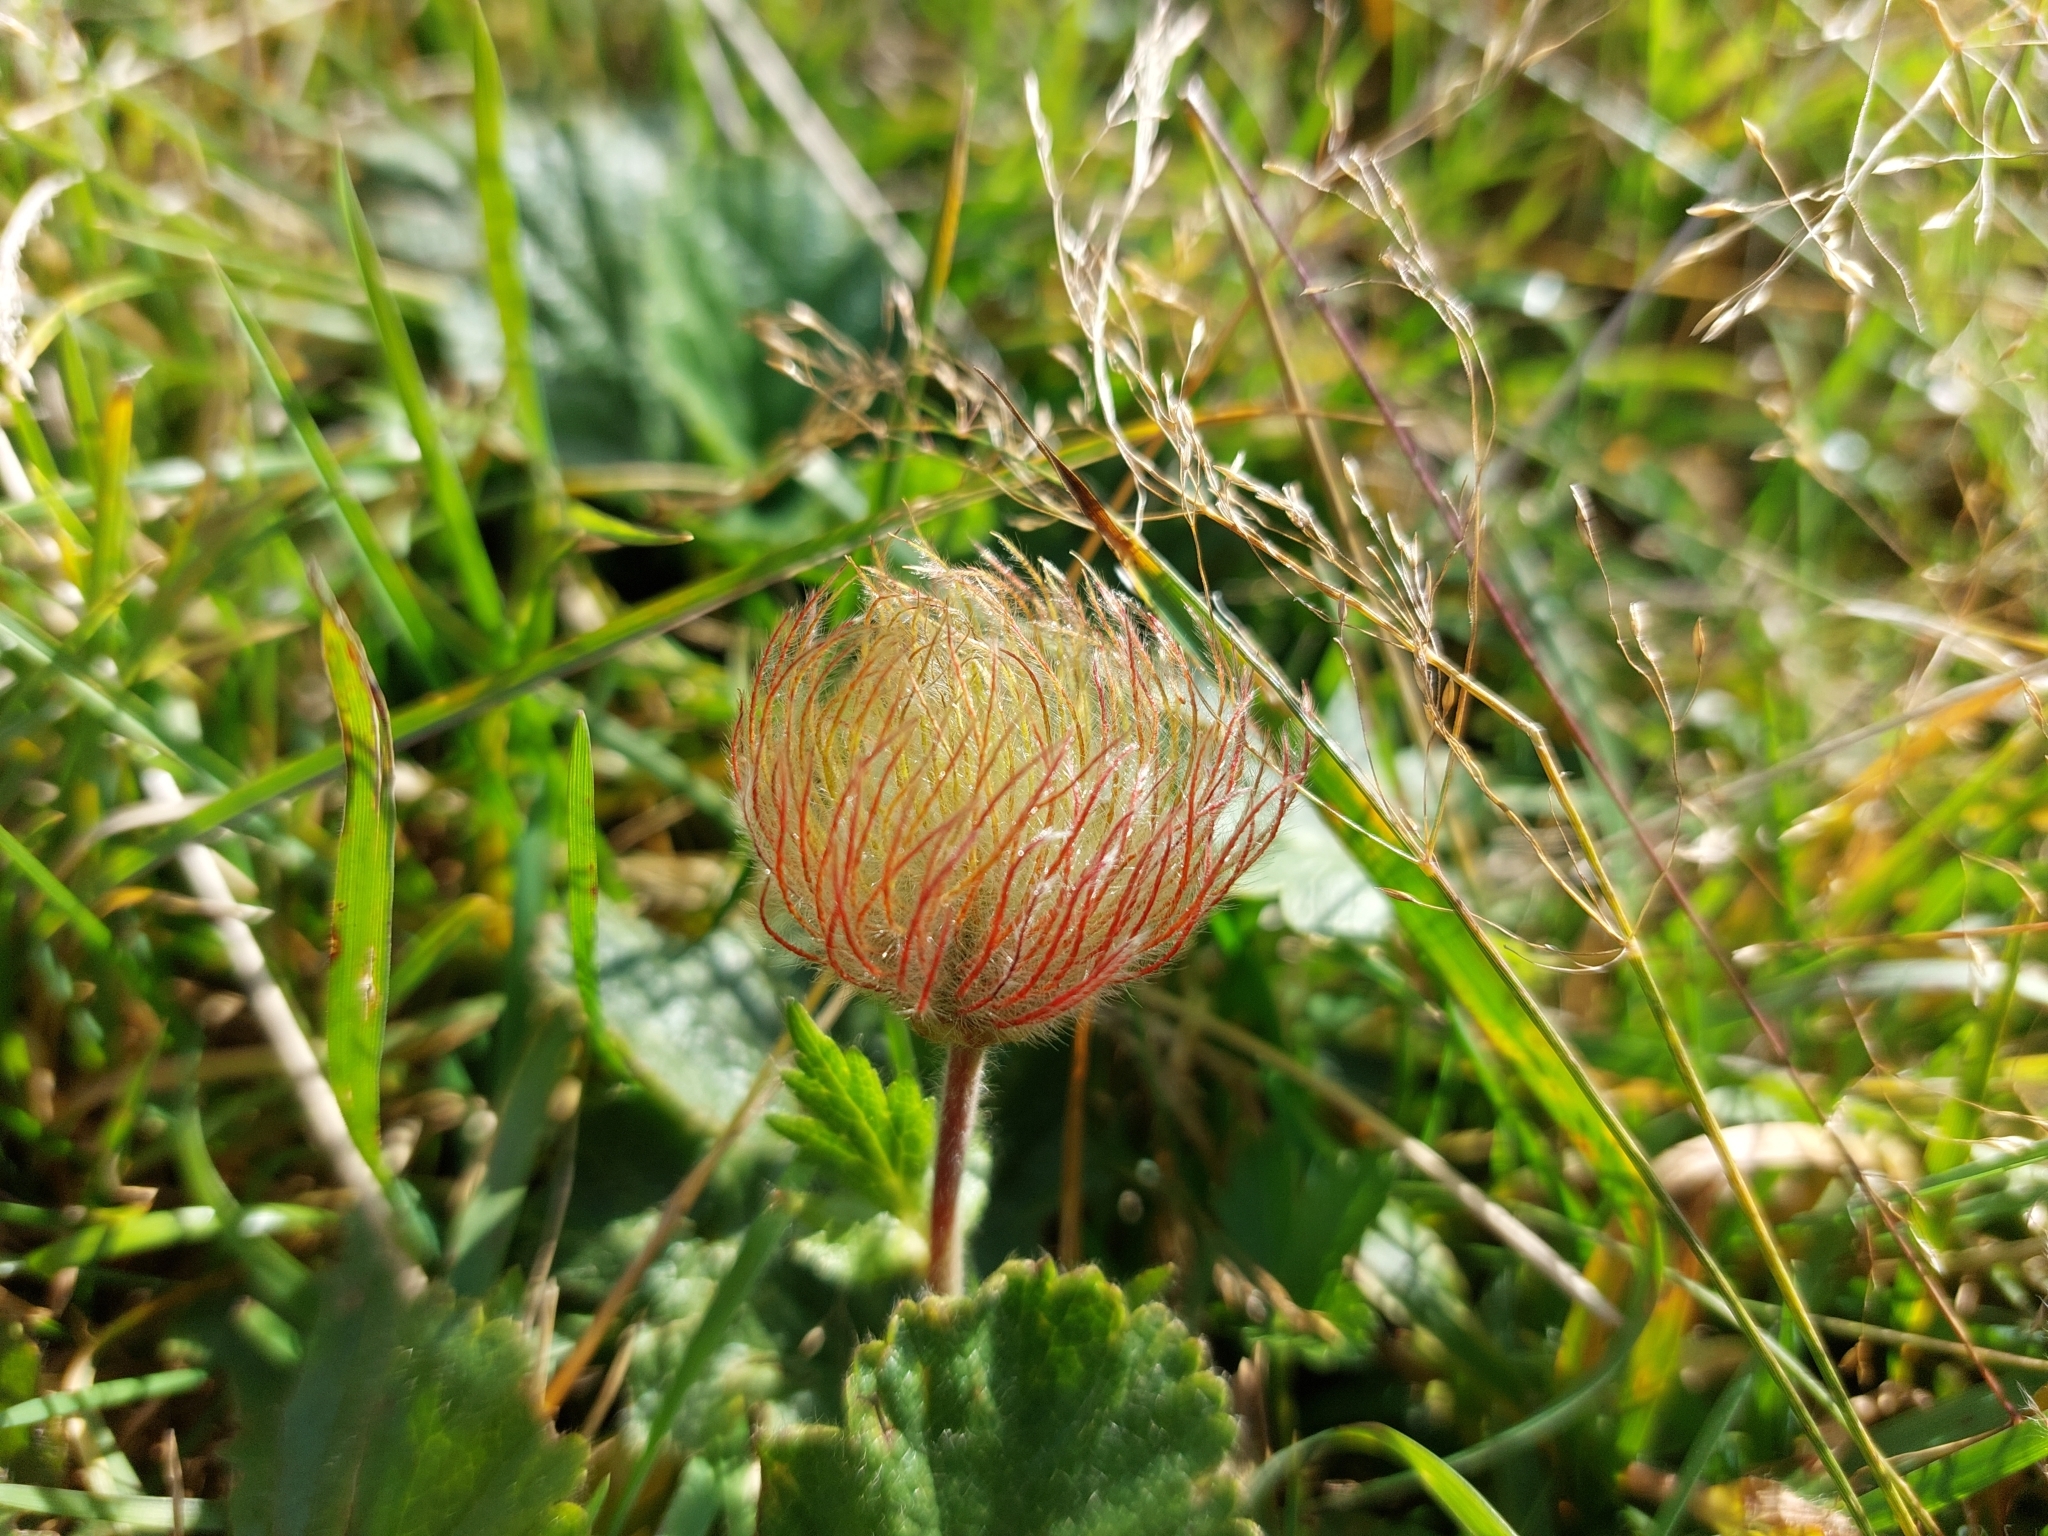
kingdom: Plantae
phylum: Tracheophyta
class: Magnoliopsida
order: Rosales
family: Rosaceae
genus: Geum
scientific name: Geum montanum
